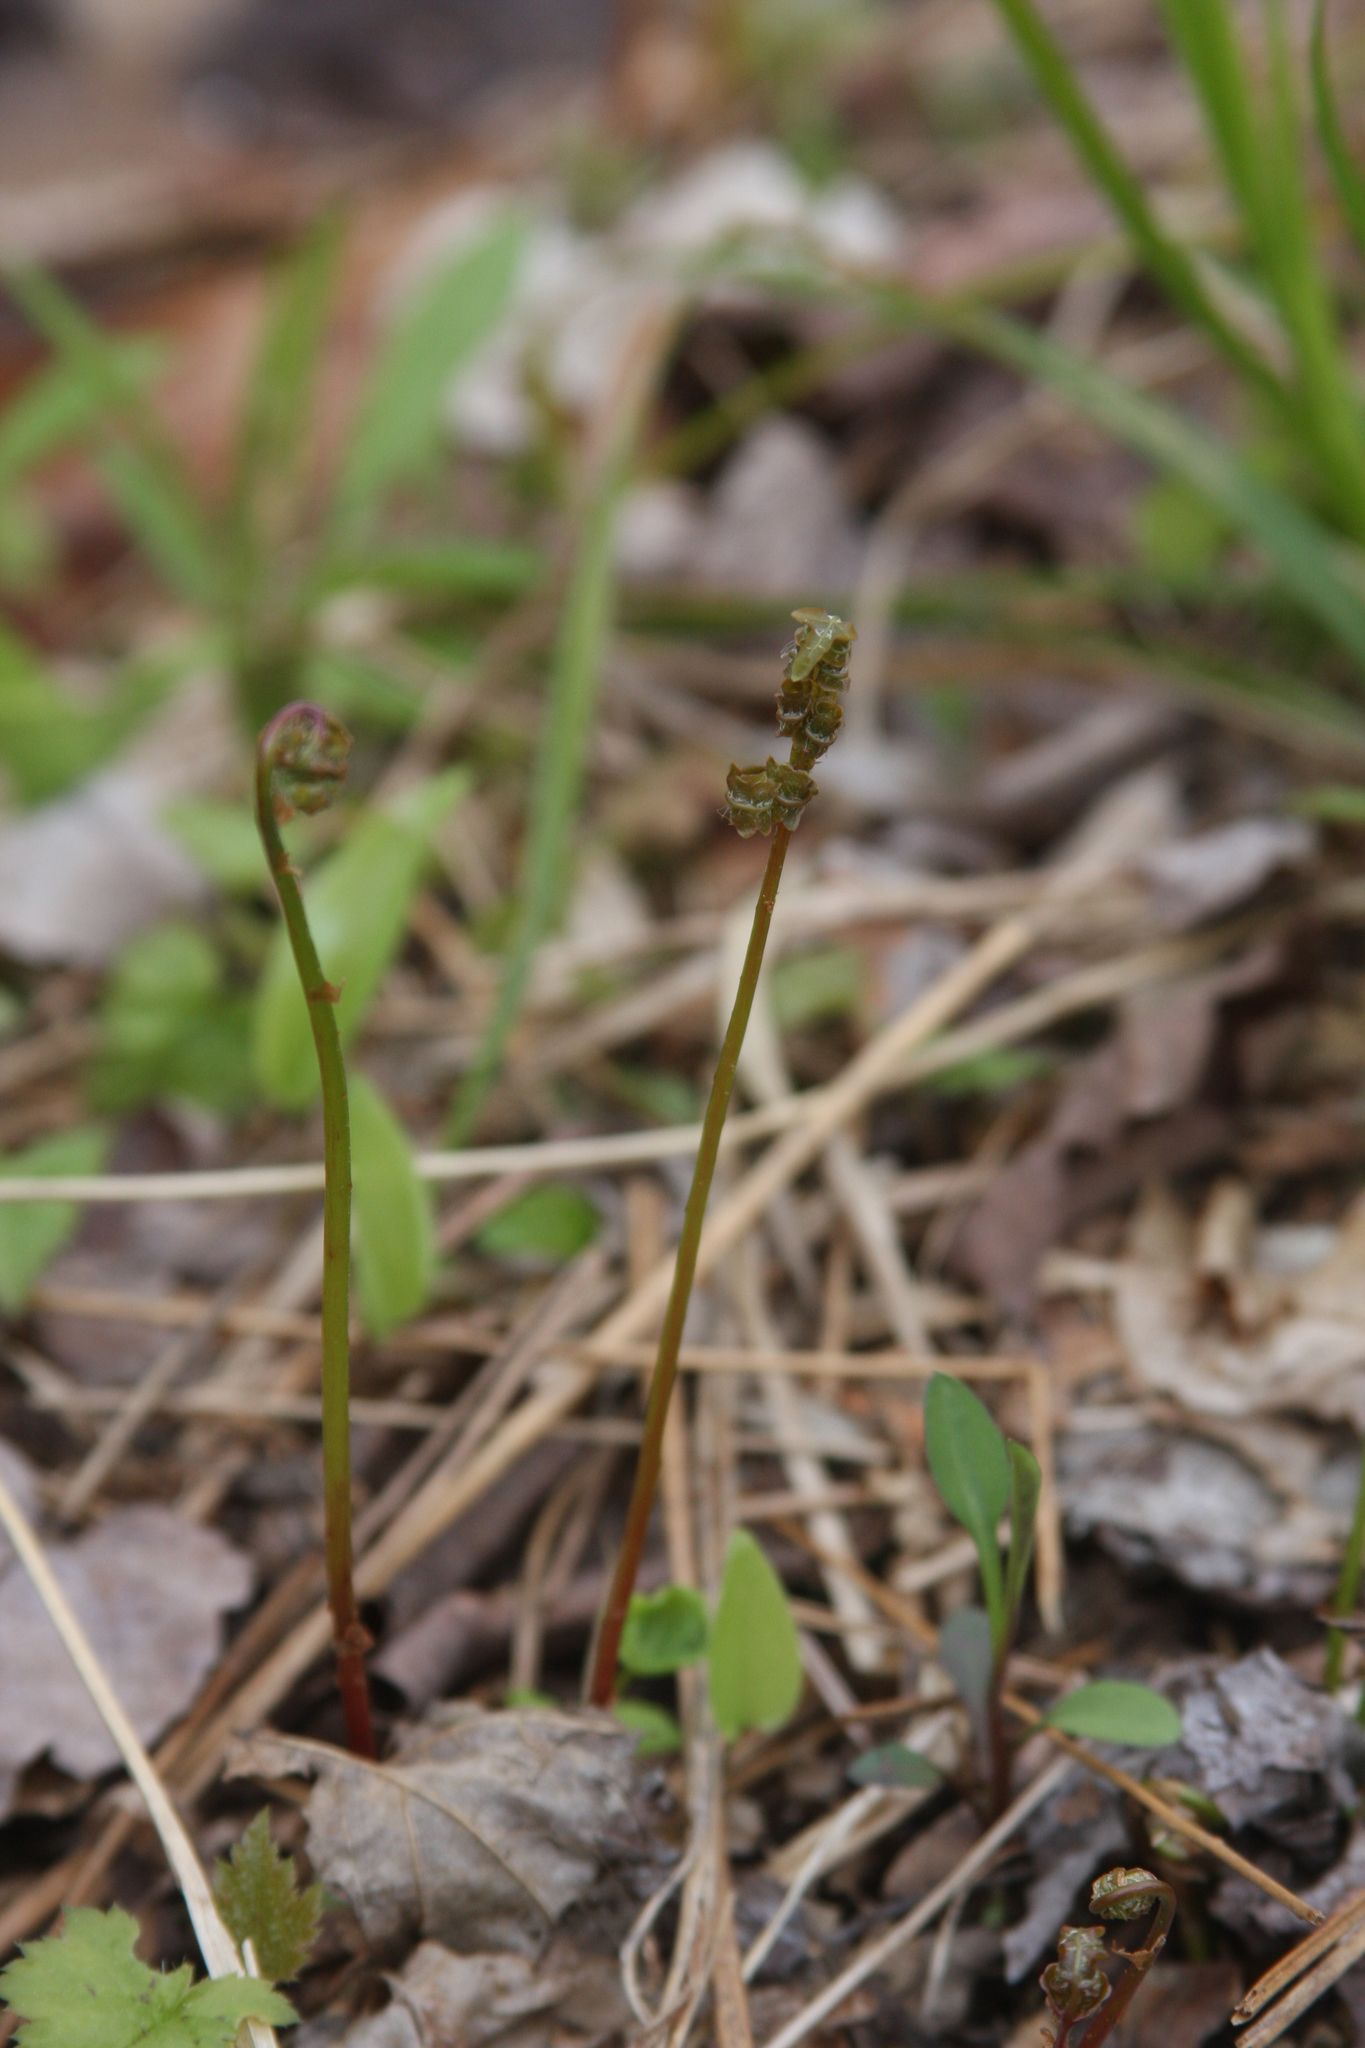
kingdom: Plantae
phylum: Tracheophyta
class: Polypodiopsida
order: Polypodiales
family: Onocleaceae
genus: Onoclea
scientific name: Onoclea sensibilis
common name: Sensitive fern
